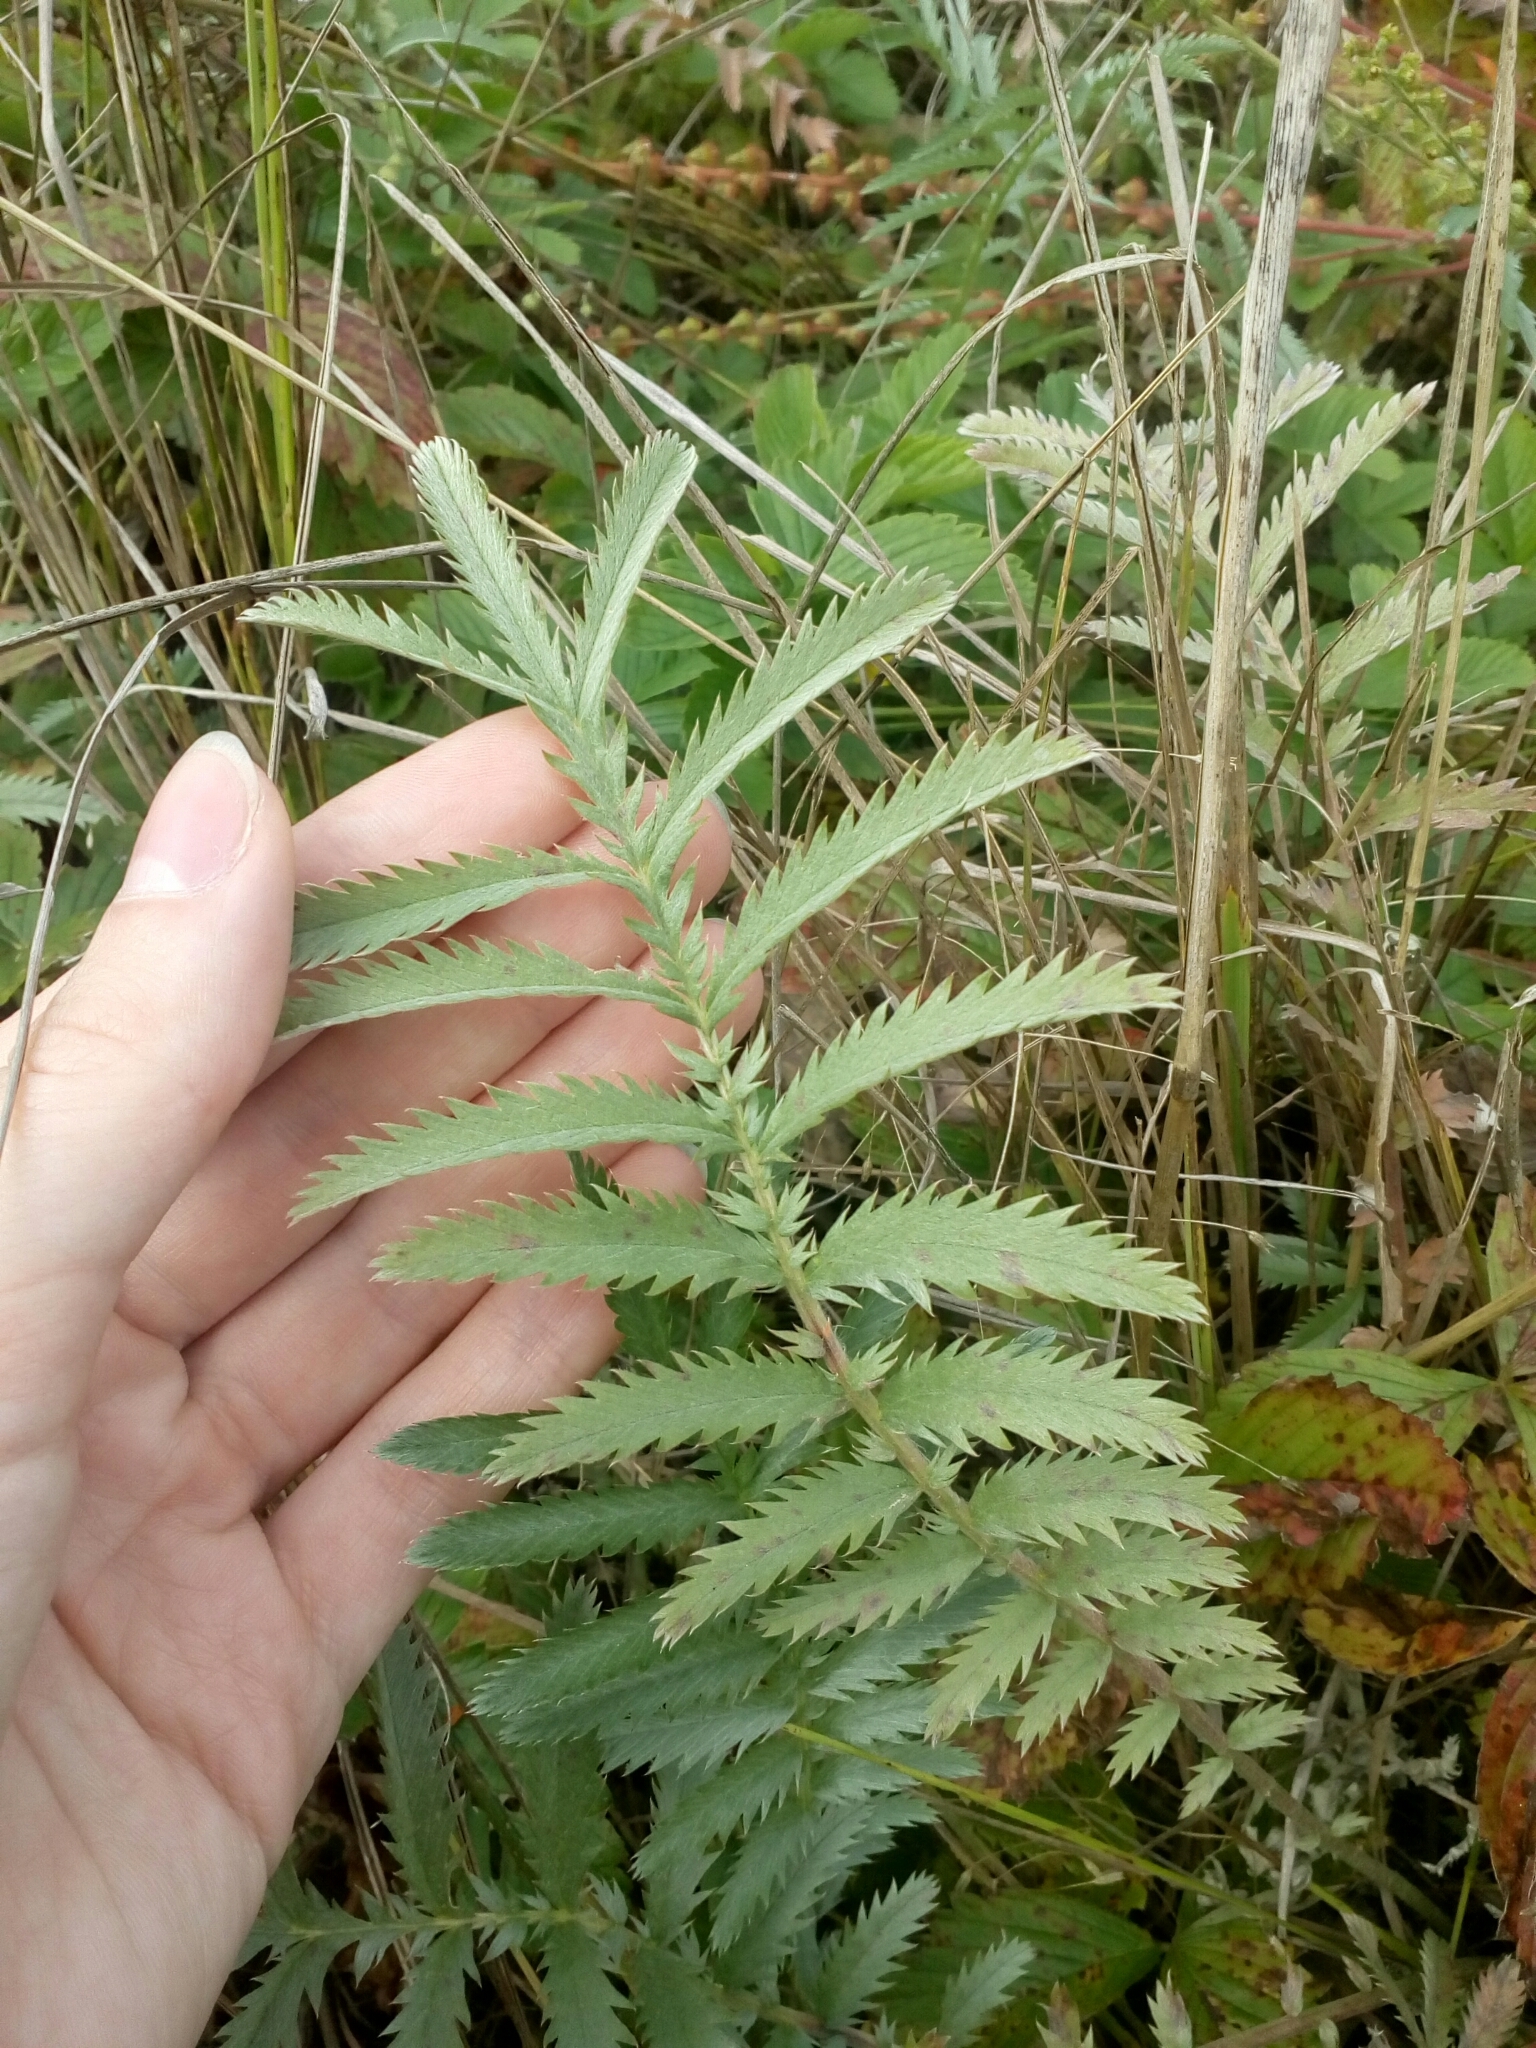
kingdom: Plantae
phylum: Tracheophyta
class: Magnoliopsida
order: Rosales
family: Rosaceae
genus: Argentina
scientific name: Argentina anserina
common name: Common silverweed
